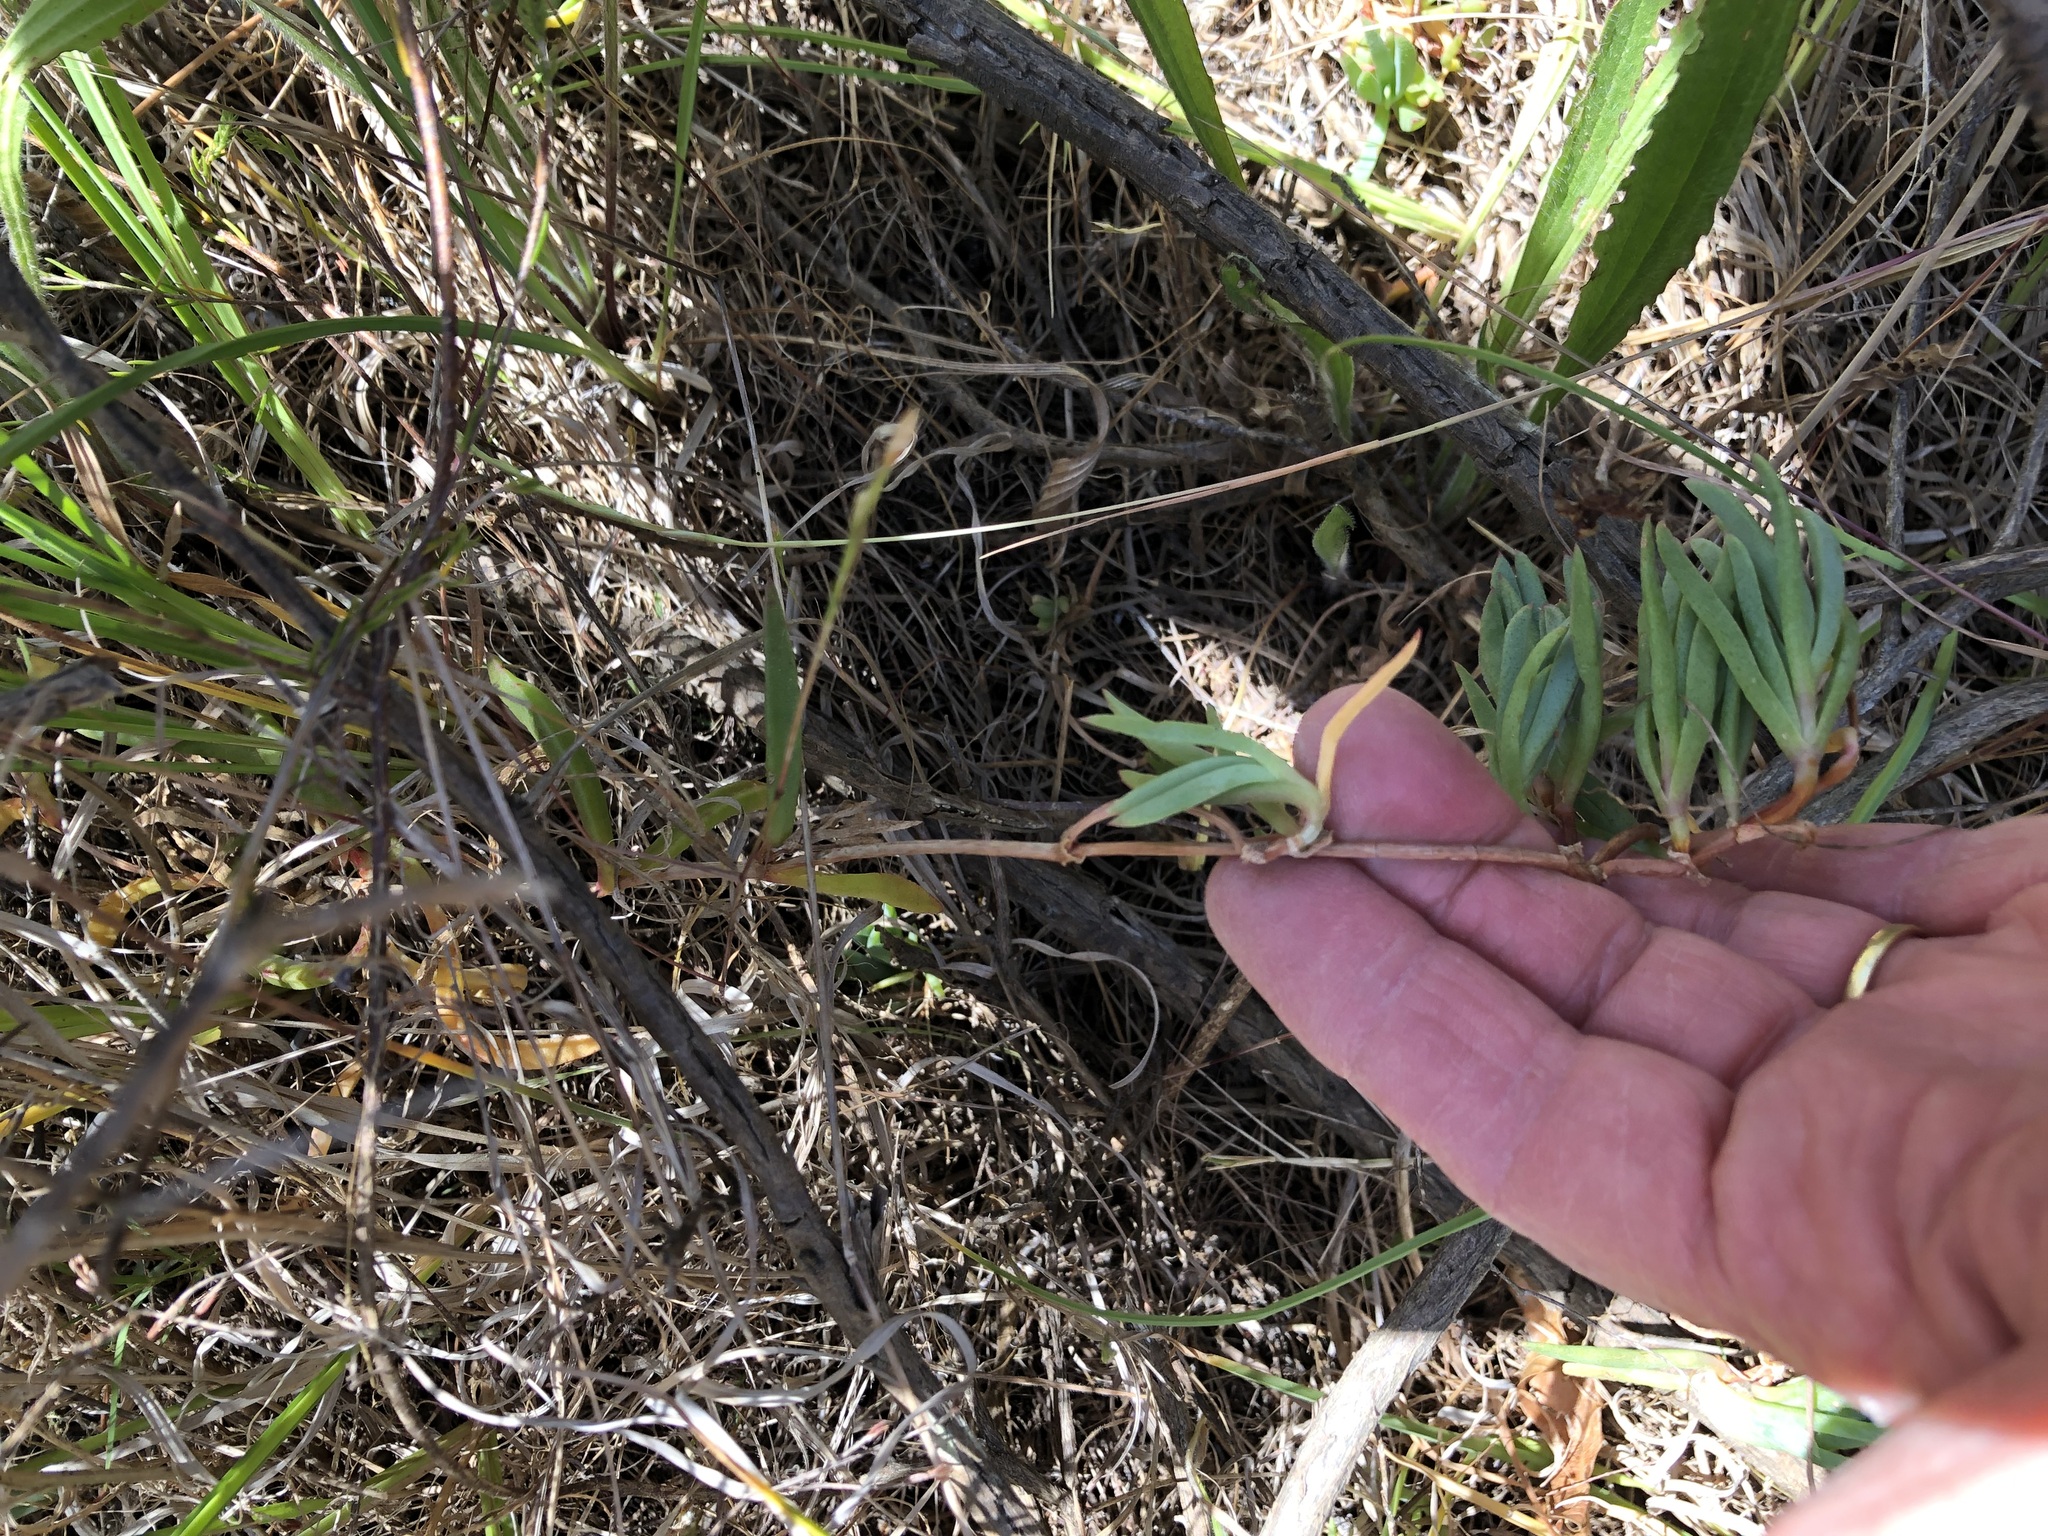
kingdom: Plantae
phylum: Tracheophyta
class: Magnoliopsida
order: Caryophyllales
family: Aizoaceae
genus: Lampranthus
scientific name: Lampranthus reptans
